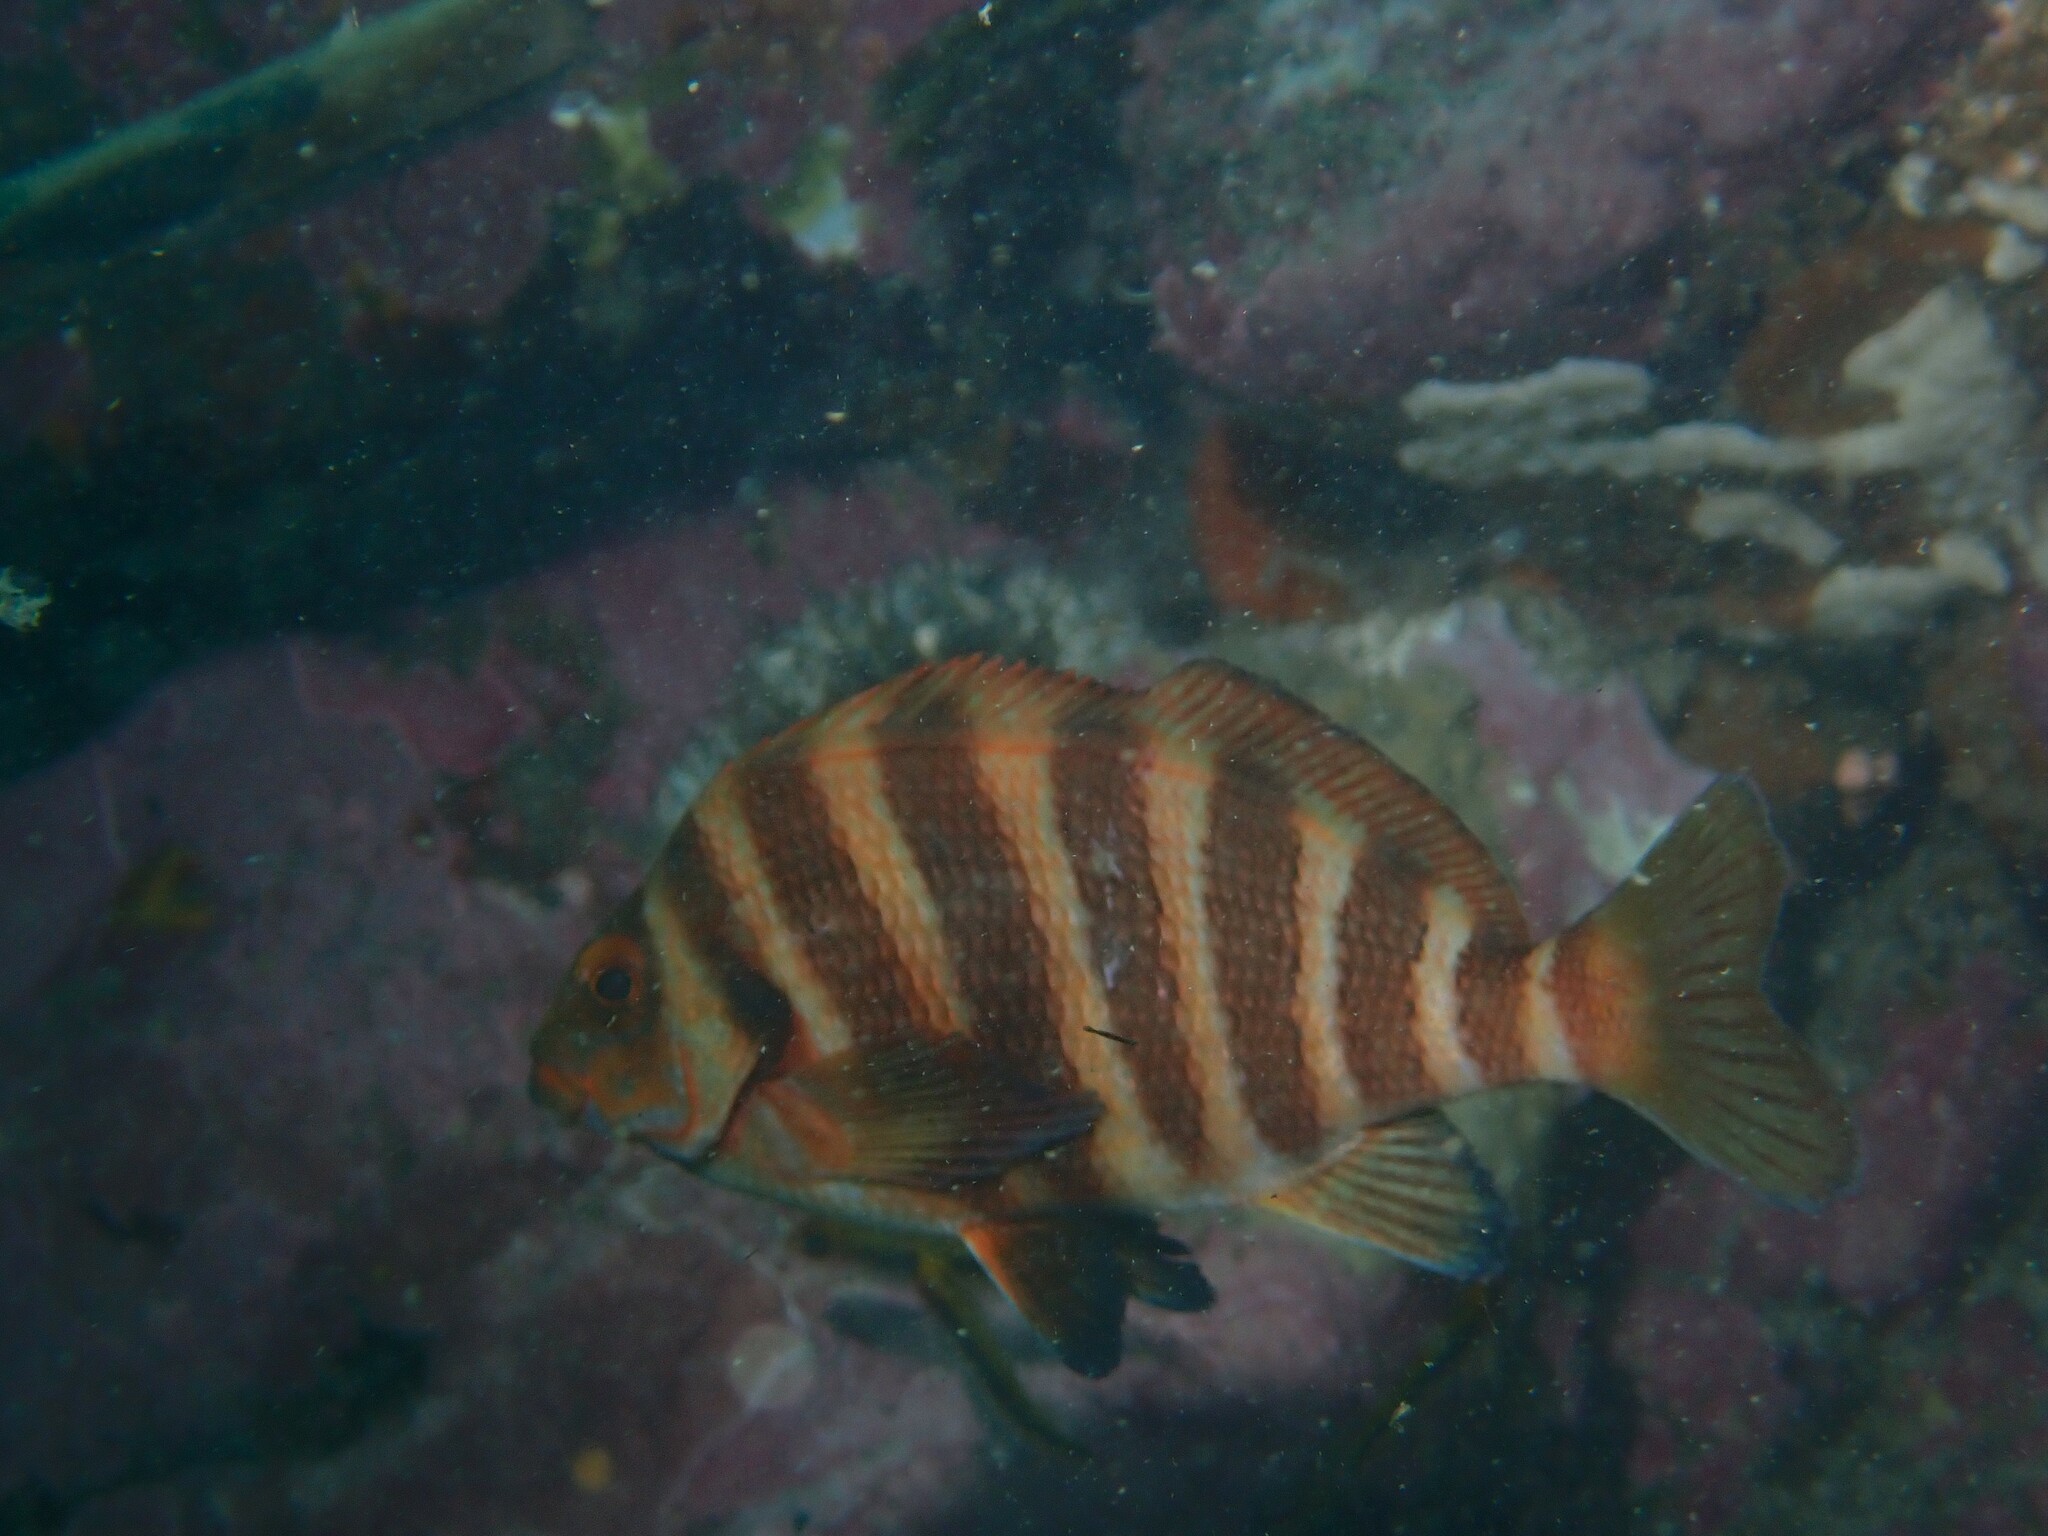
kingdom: Animalia
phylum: Chordata
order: Perciformes
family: Cheilodactylidae
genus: Cheilodactylus
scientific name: Cheilodactylus spectabilis
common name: Red moki
